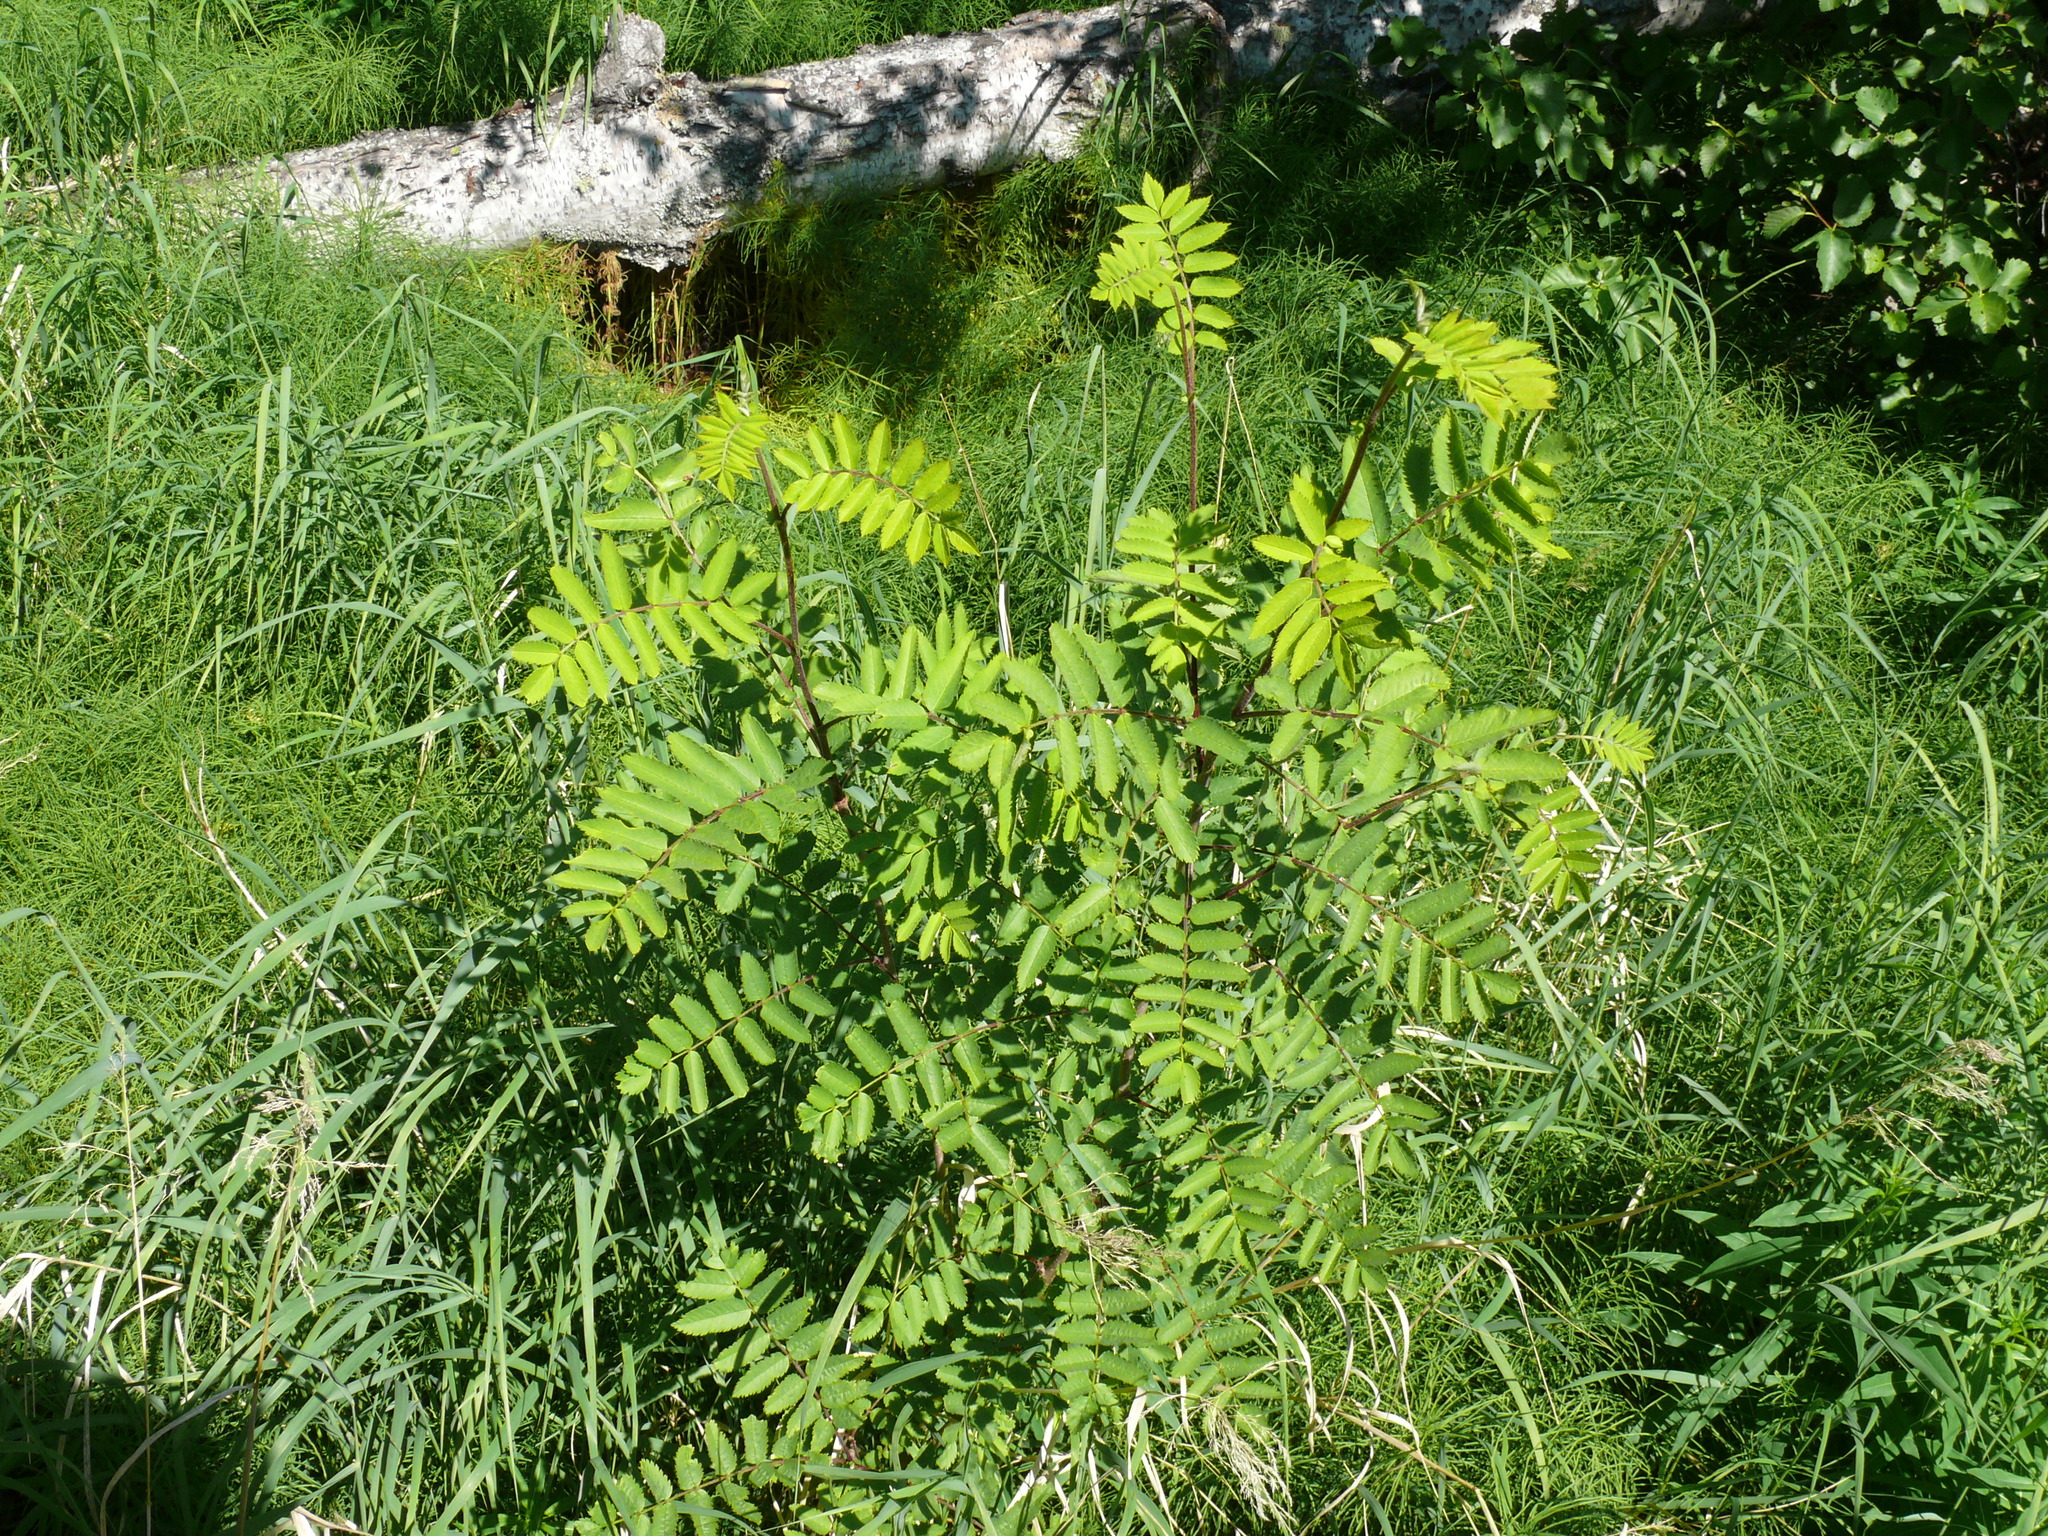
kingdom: Plantae
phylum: Tracheophyta
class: Magnoliopsida
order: Rosales
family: Rosaceae
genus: Sorbus
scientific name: Sorbus aucuparia
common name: Rowan
